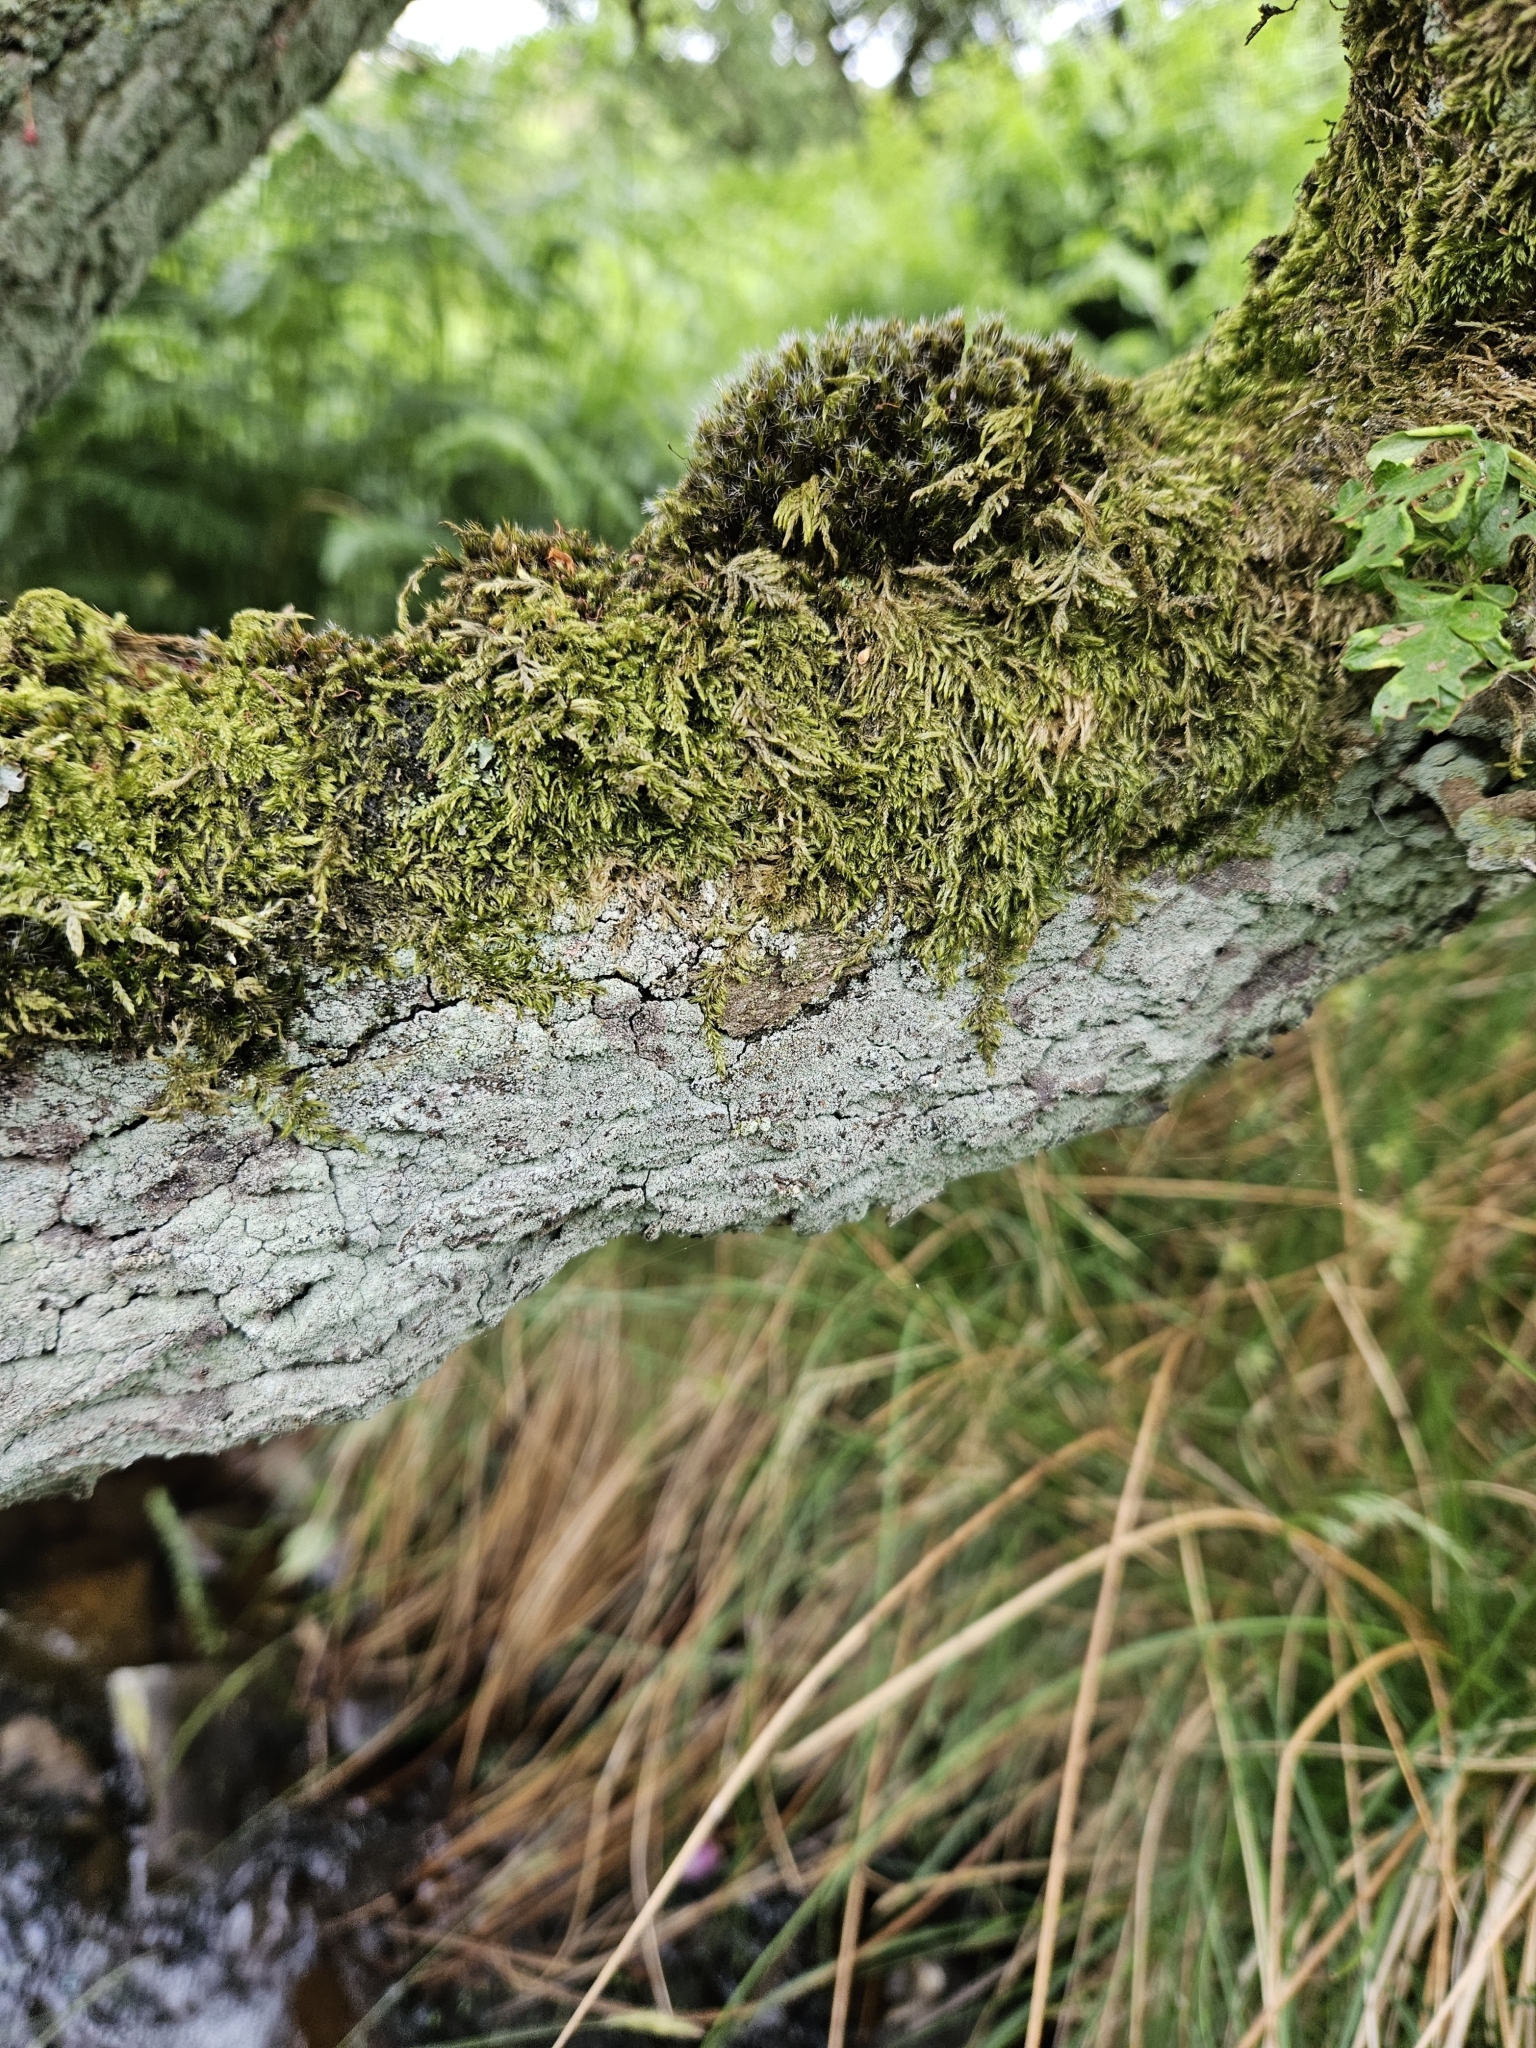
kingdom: Plantae
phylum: Bryophyta
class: Bryopsida
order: Dicranales
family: Leucobryaceae
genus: Campylopus
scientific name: Campylopus introflexus
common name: Heath star moss
